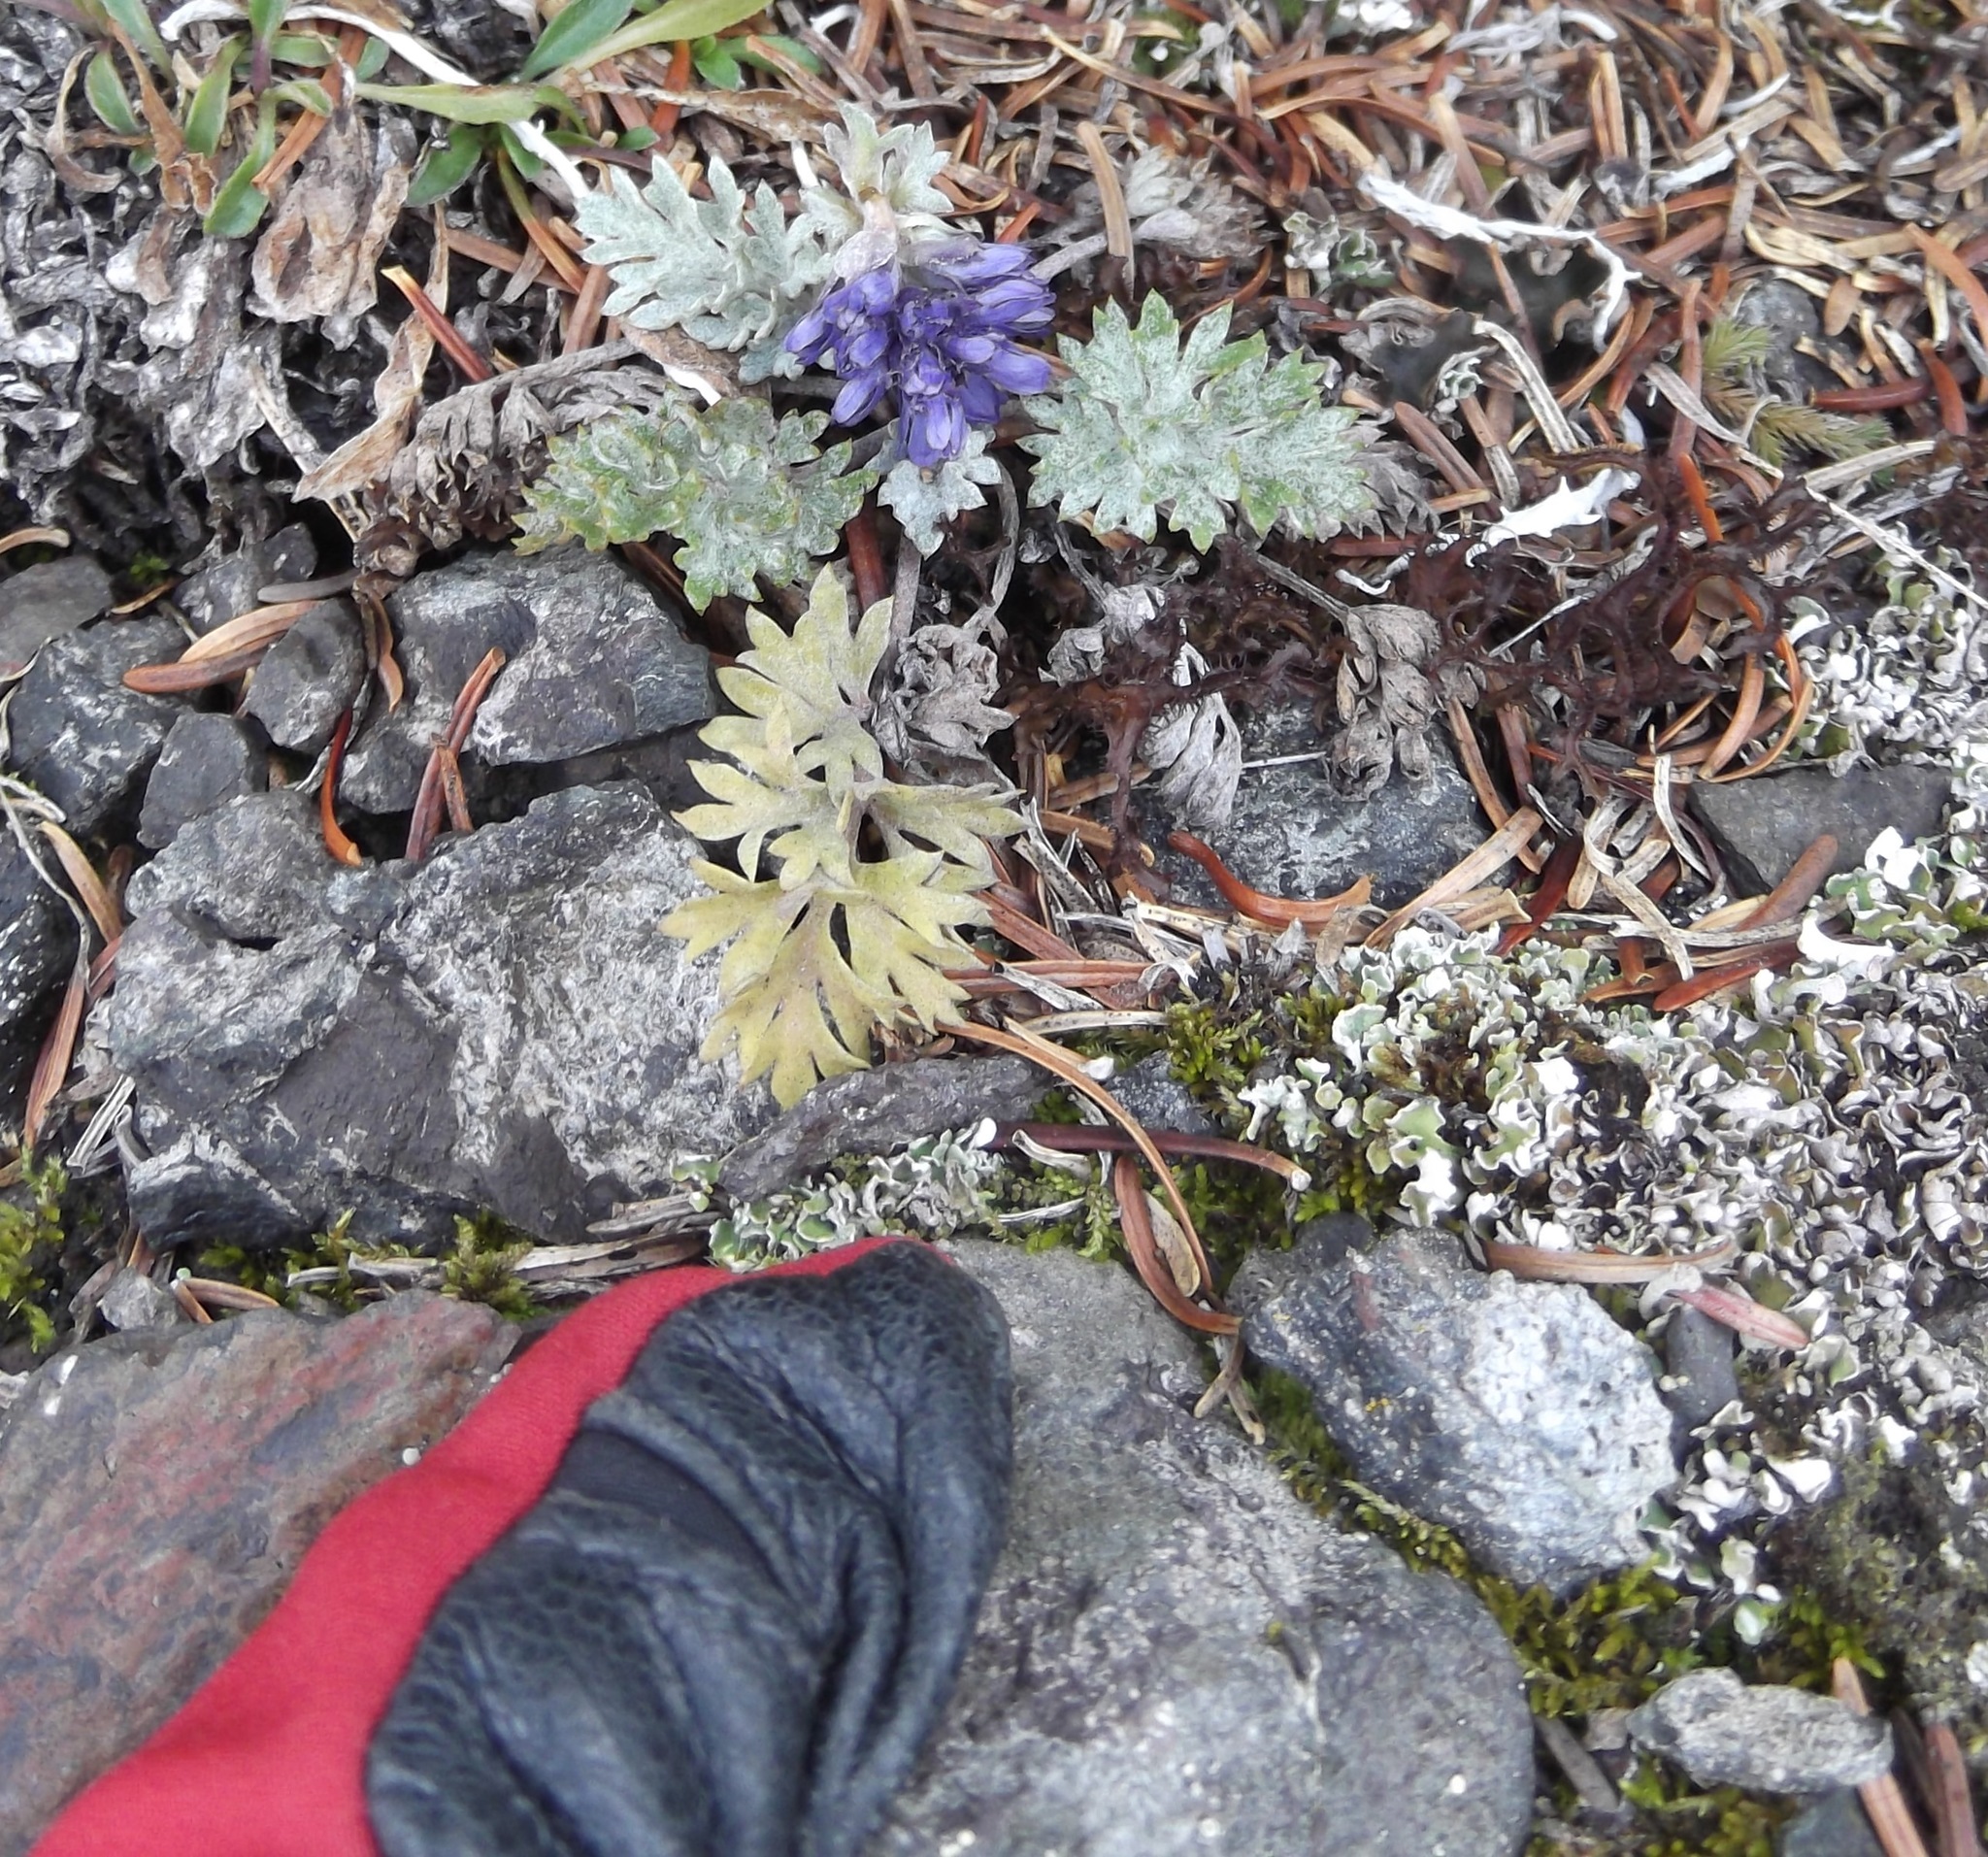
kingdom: Plantae
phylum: Tracheophyta
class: Magnoliopsida
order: Lamiales
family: Plantaginaceae
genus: Synthyris
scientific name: Synthyris lanuginosa
